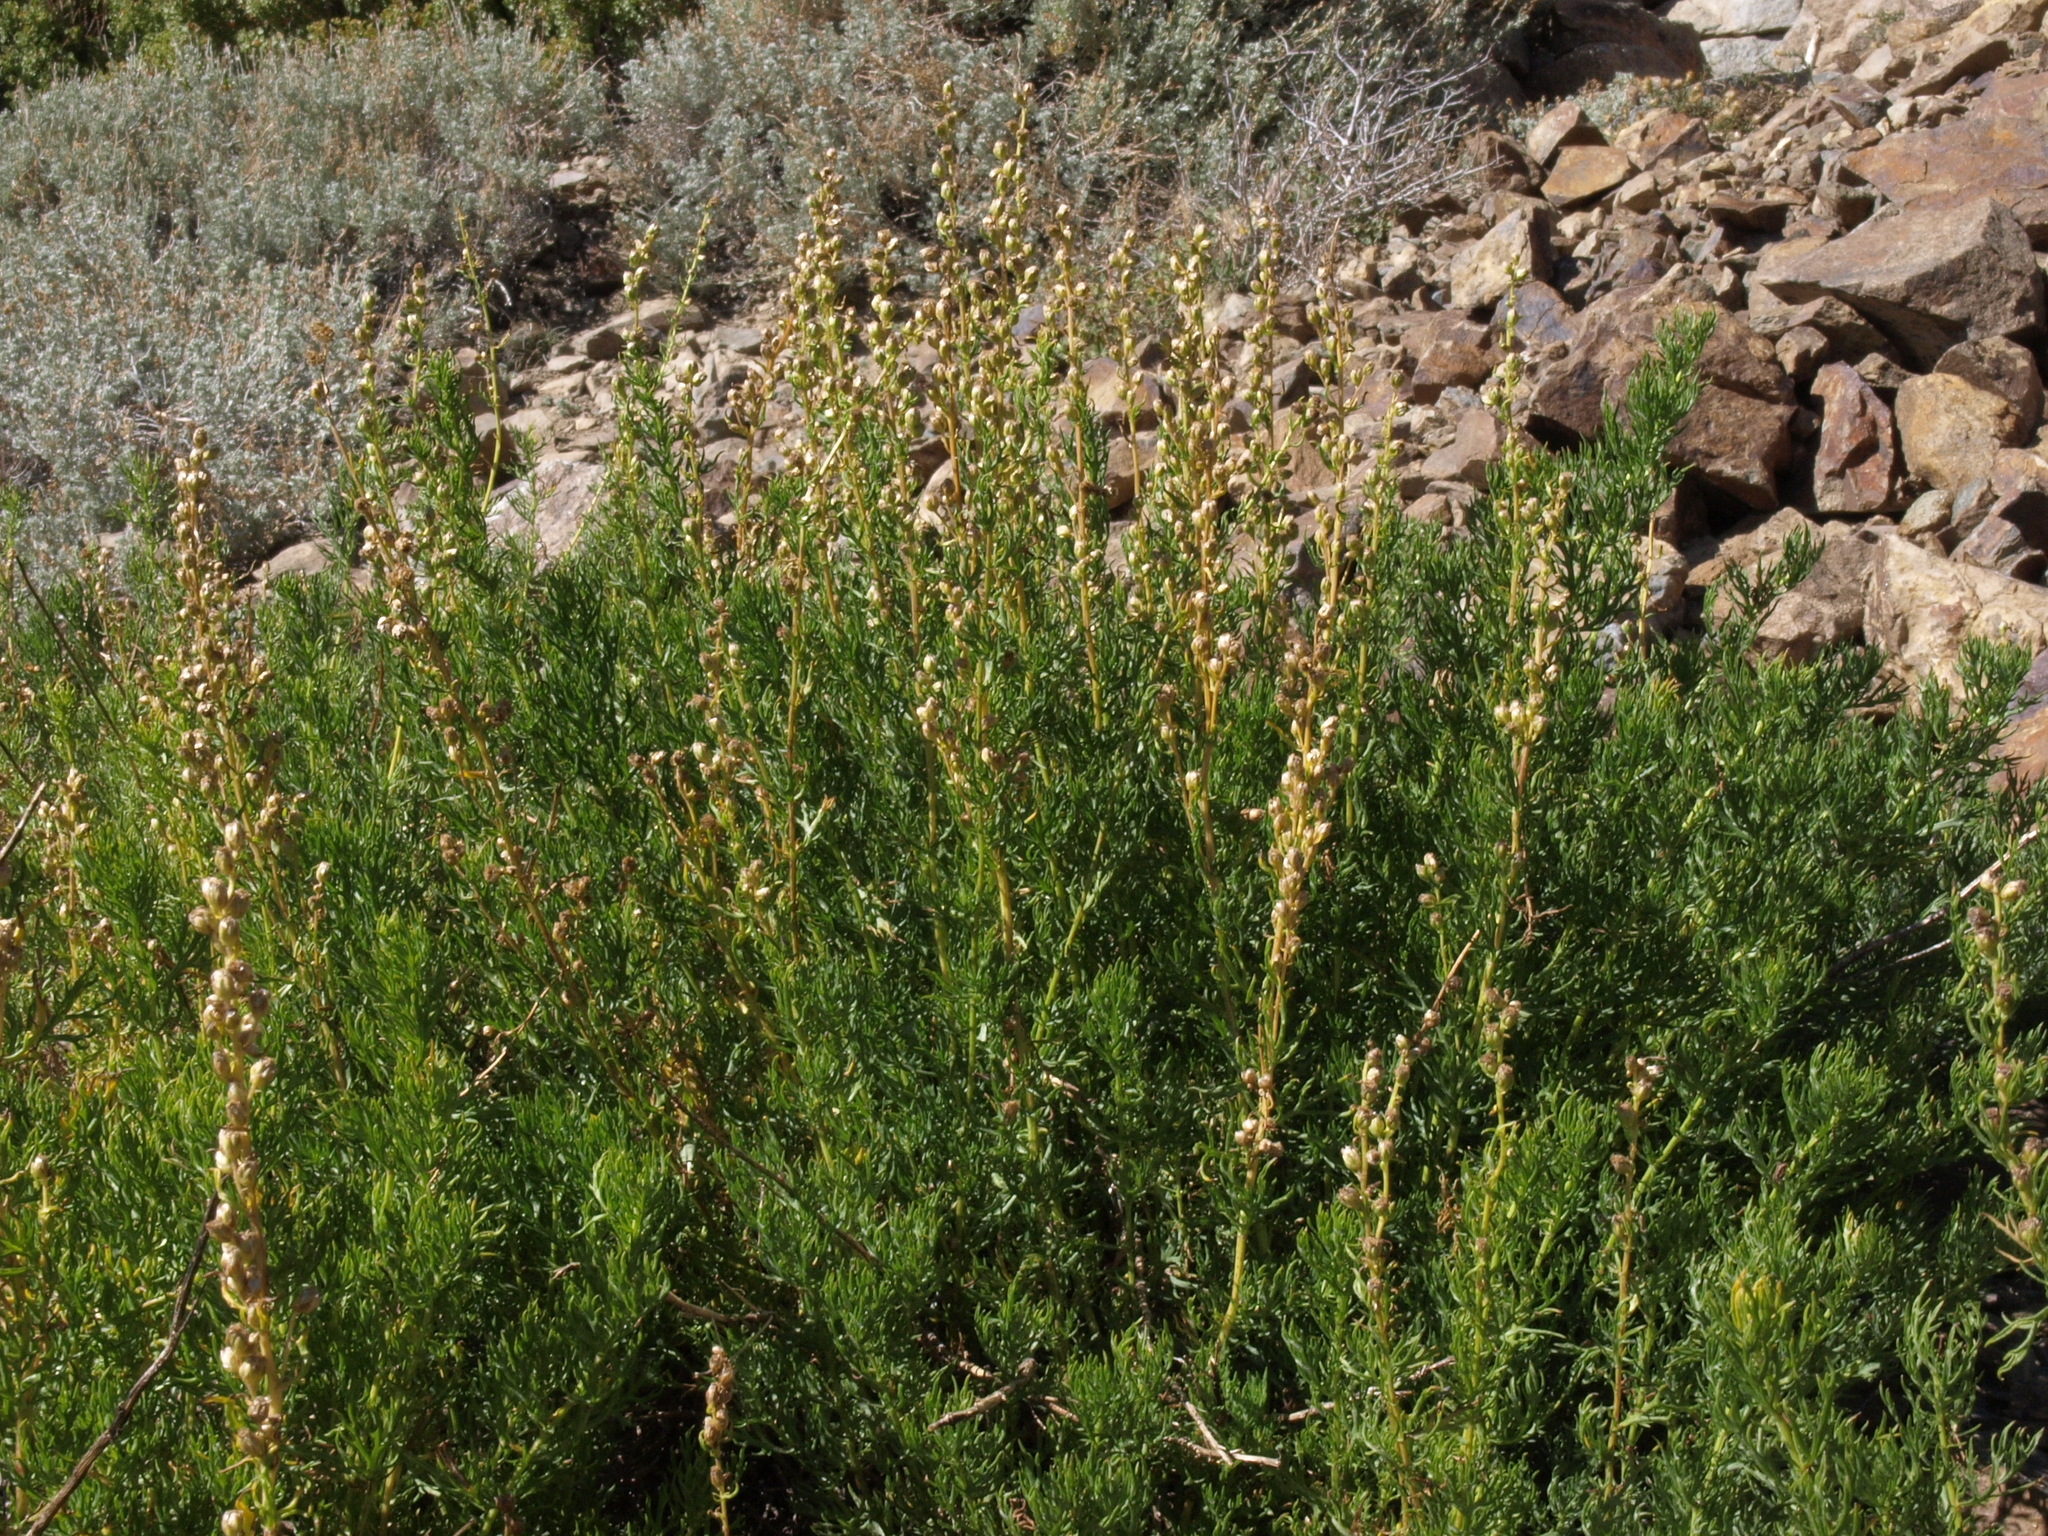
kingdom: Plantae
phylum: Tracheophyta
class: Magnoliopsida
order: Asterales
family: Asteraceae
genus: Artemisia
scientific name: Artemisia michauxiana
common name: Lemon sagewort
